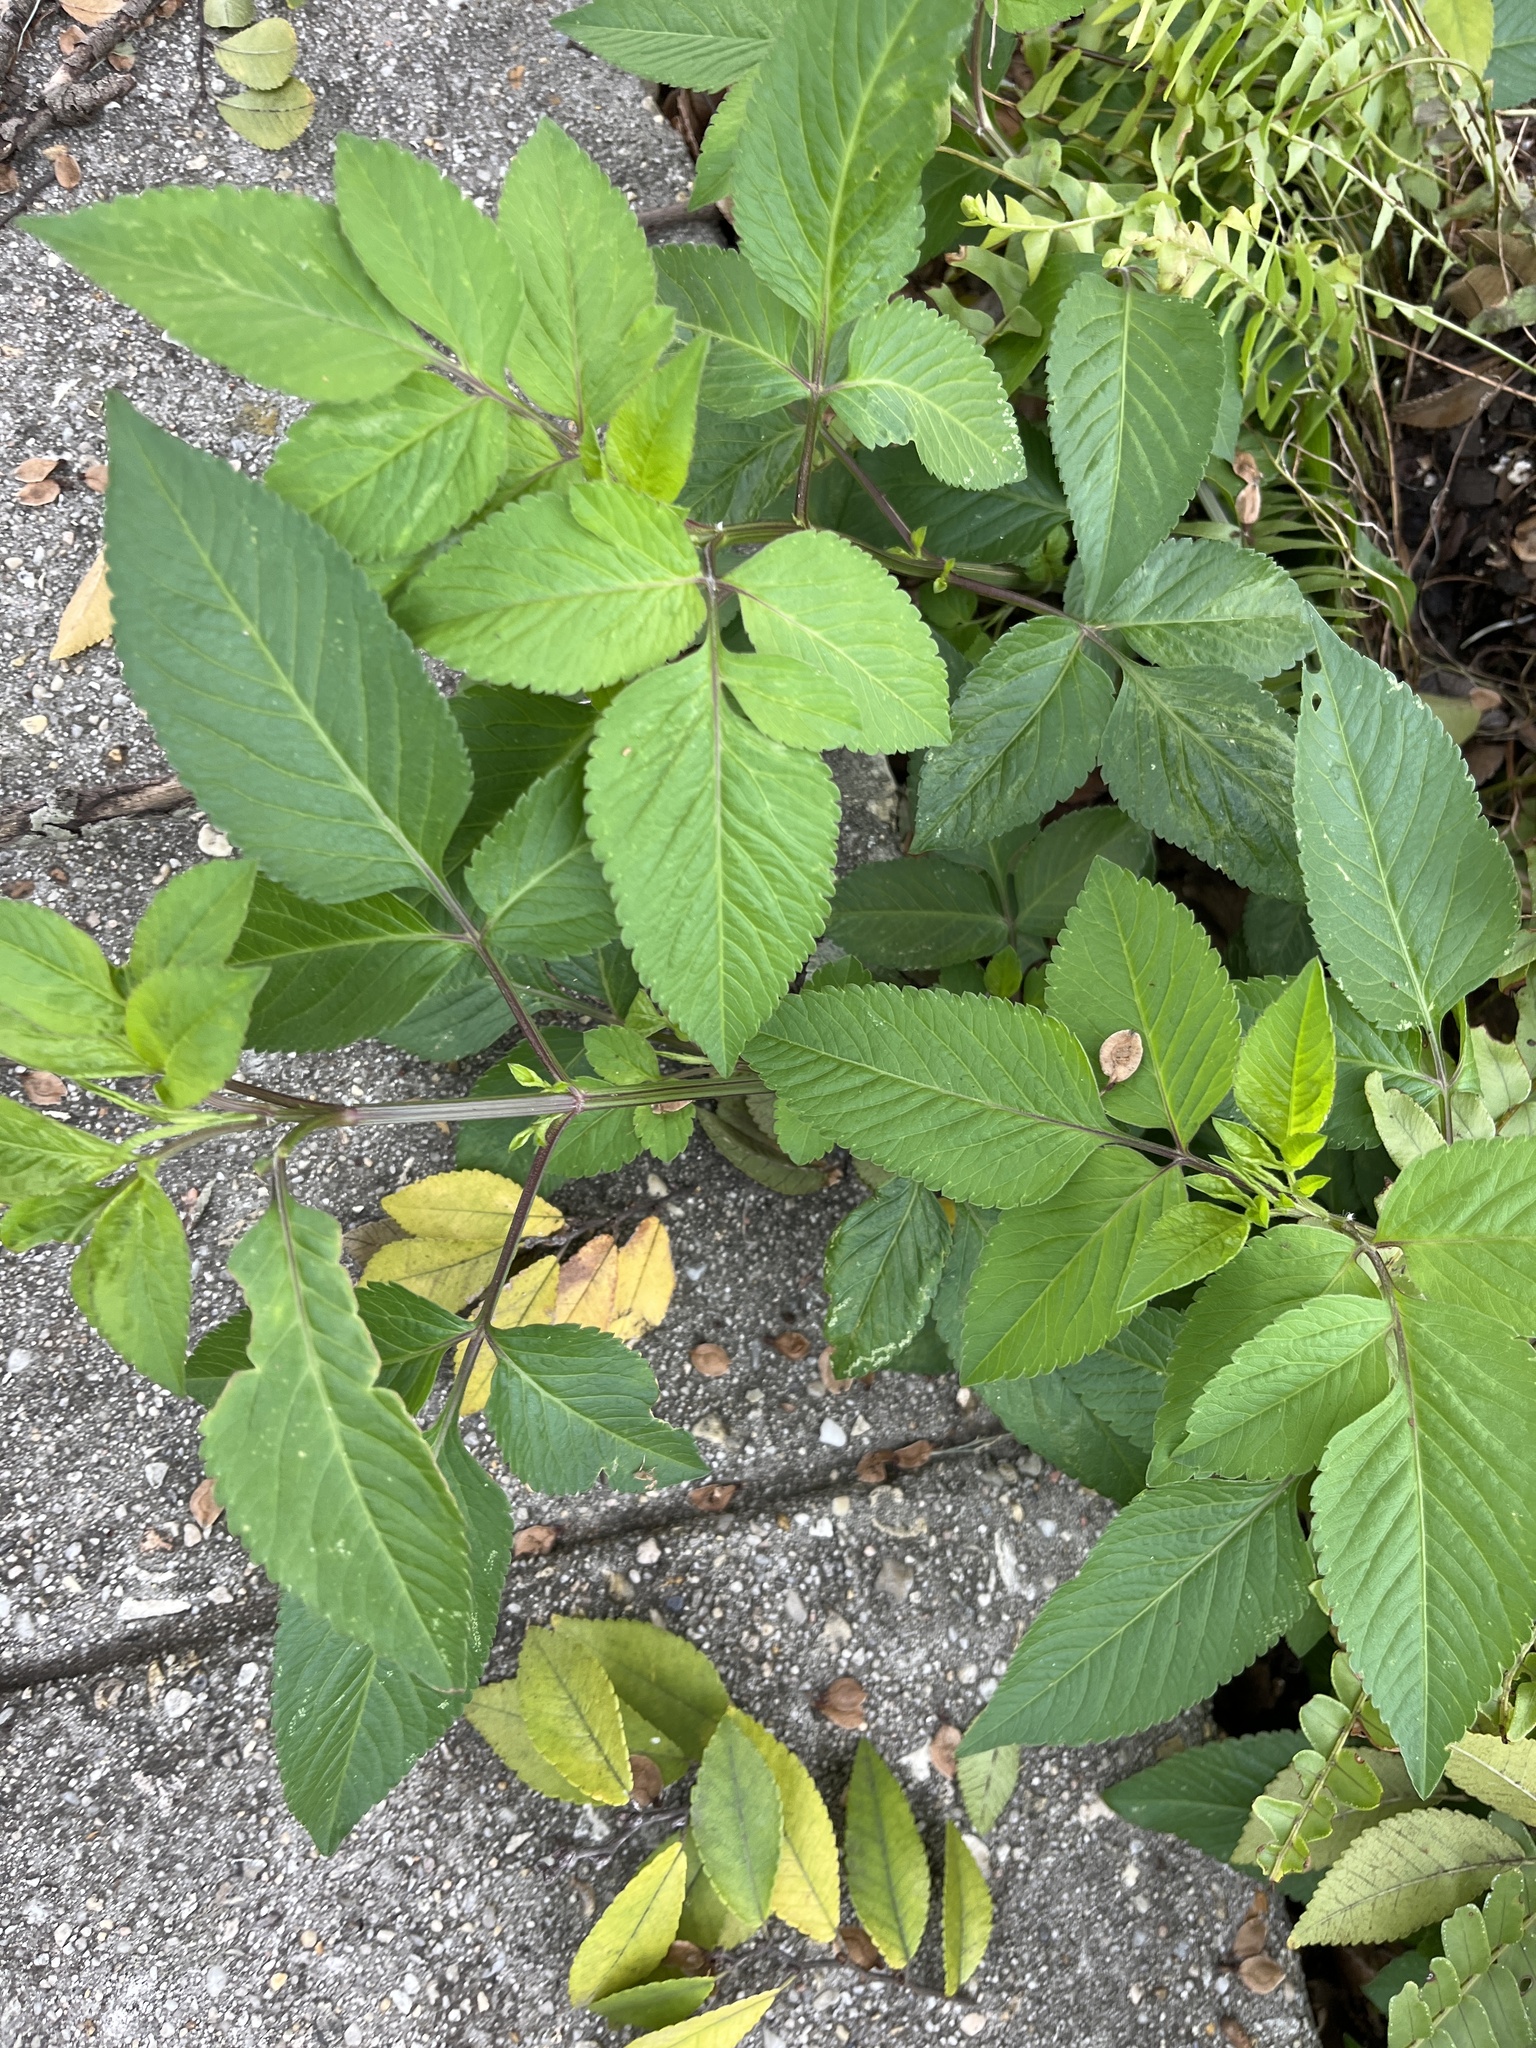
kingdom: Plantae
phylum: Tracheophyta
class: Magnoliopsida
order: Asterales
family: Asteraceae
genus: Bidens
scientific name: Bidens alba
